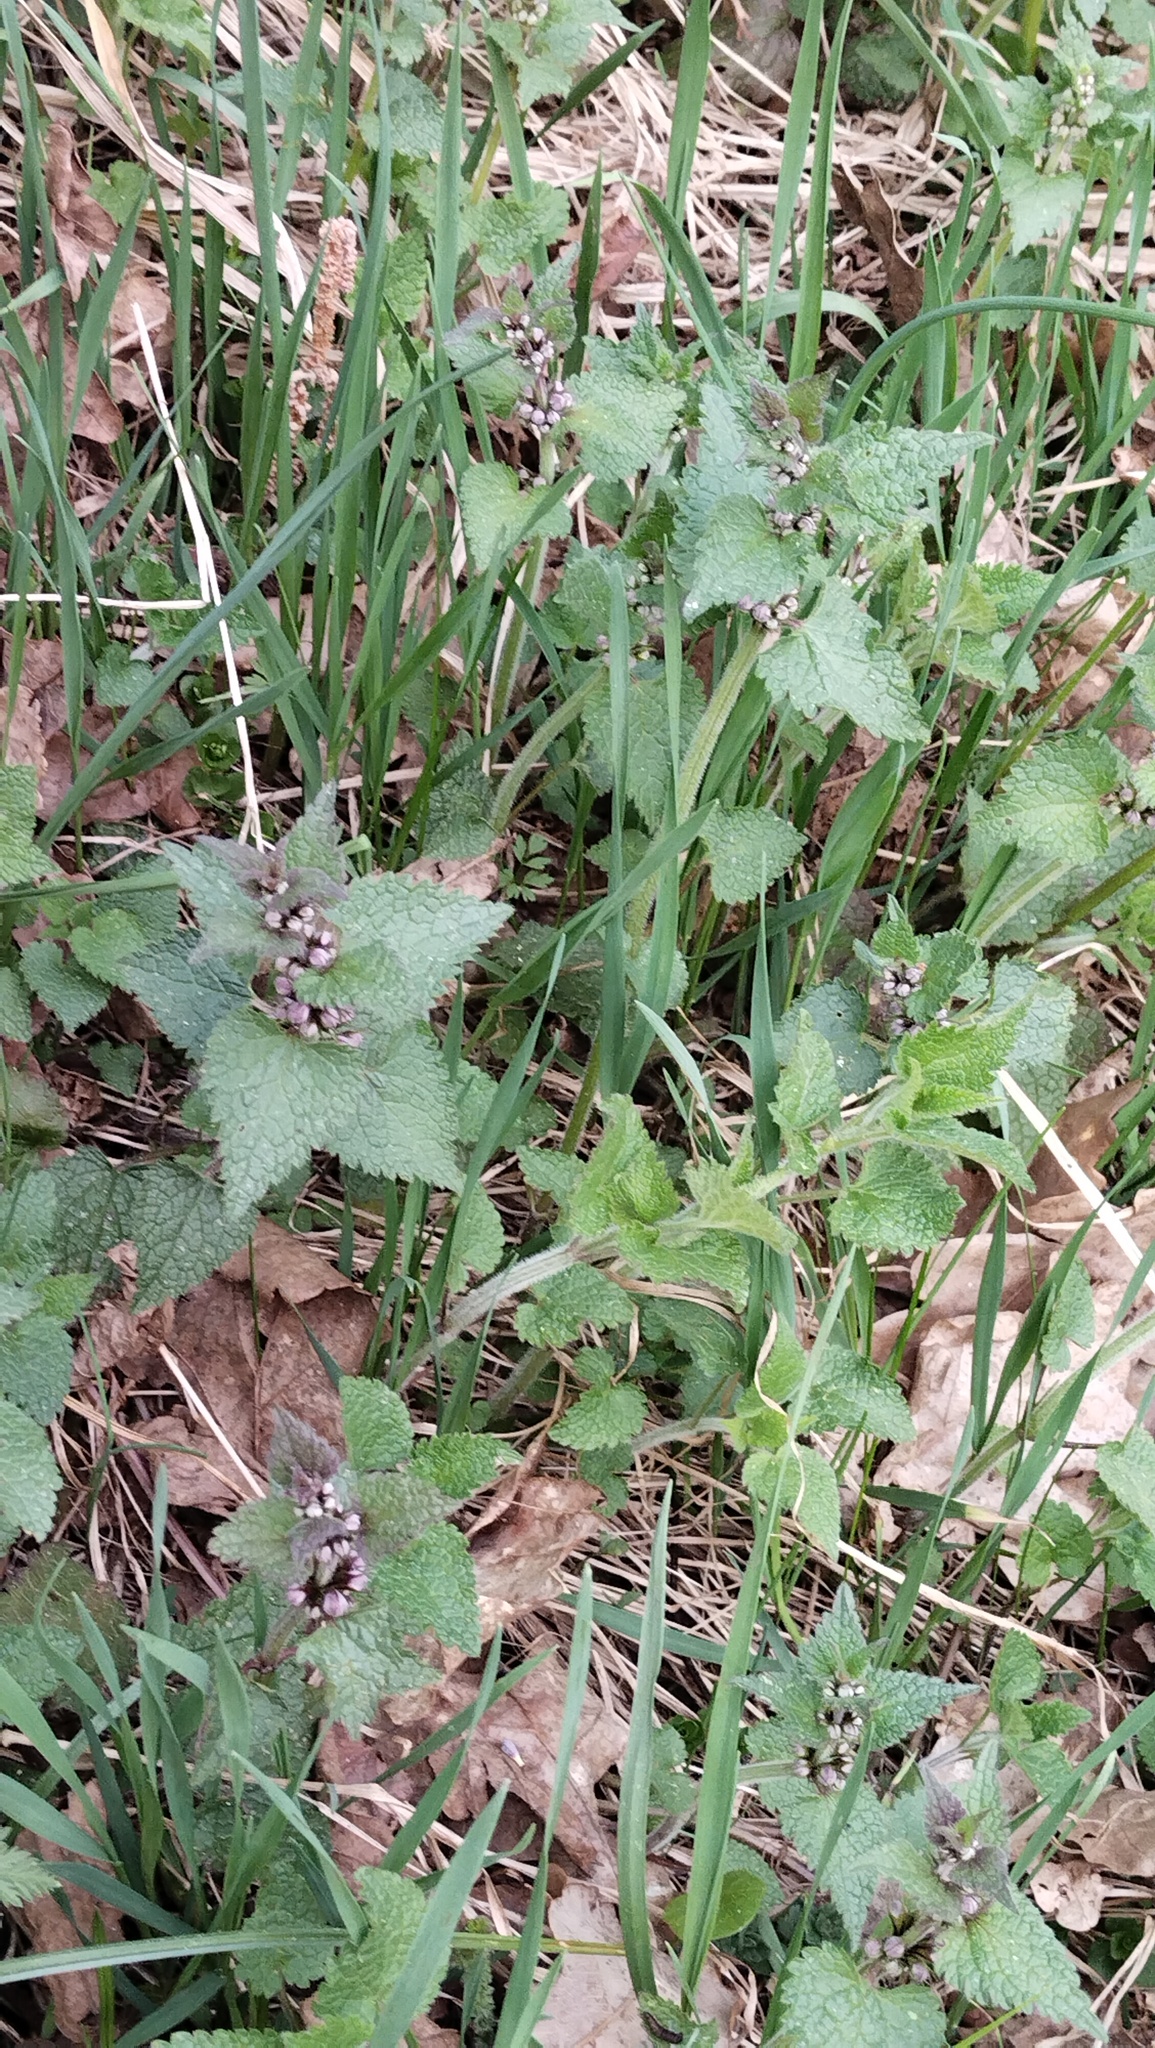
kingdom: Plantae
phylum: Tracheophyta
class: Magnoliopsida
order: Lamiales
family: Lamiaceae
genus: Lamium
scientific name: Lamium maculatum
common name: Spotted dead-nettle
